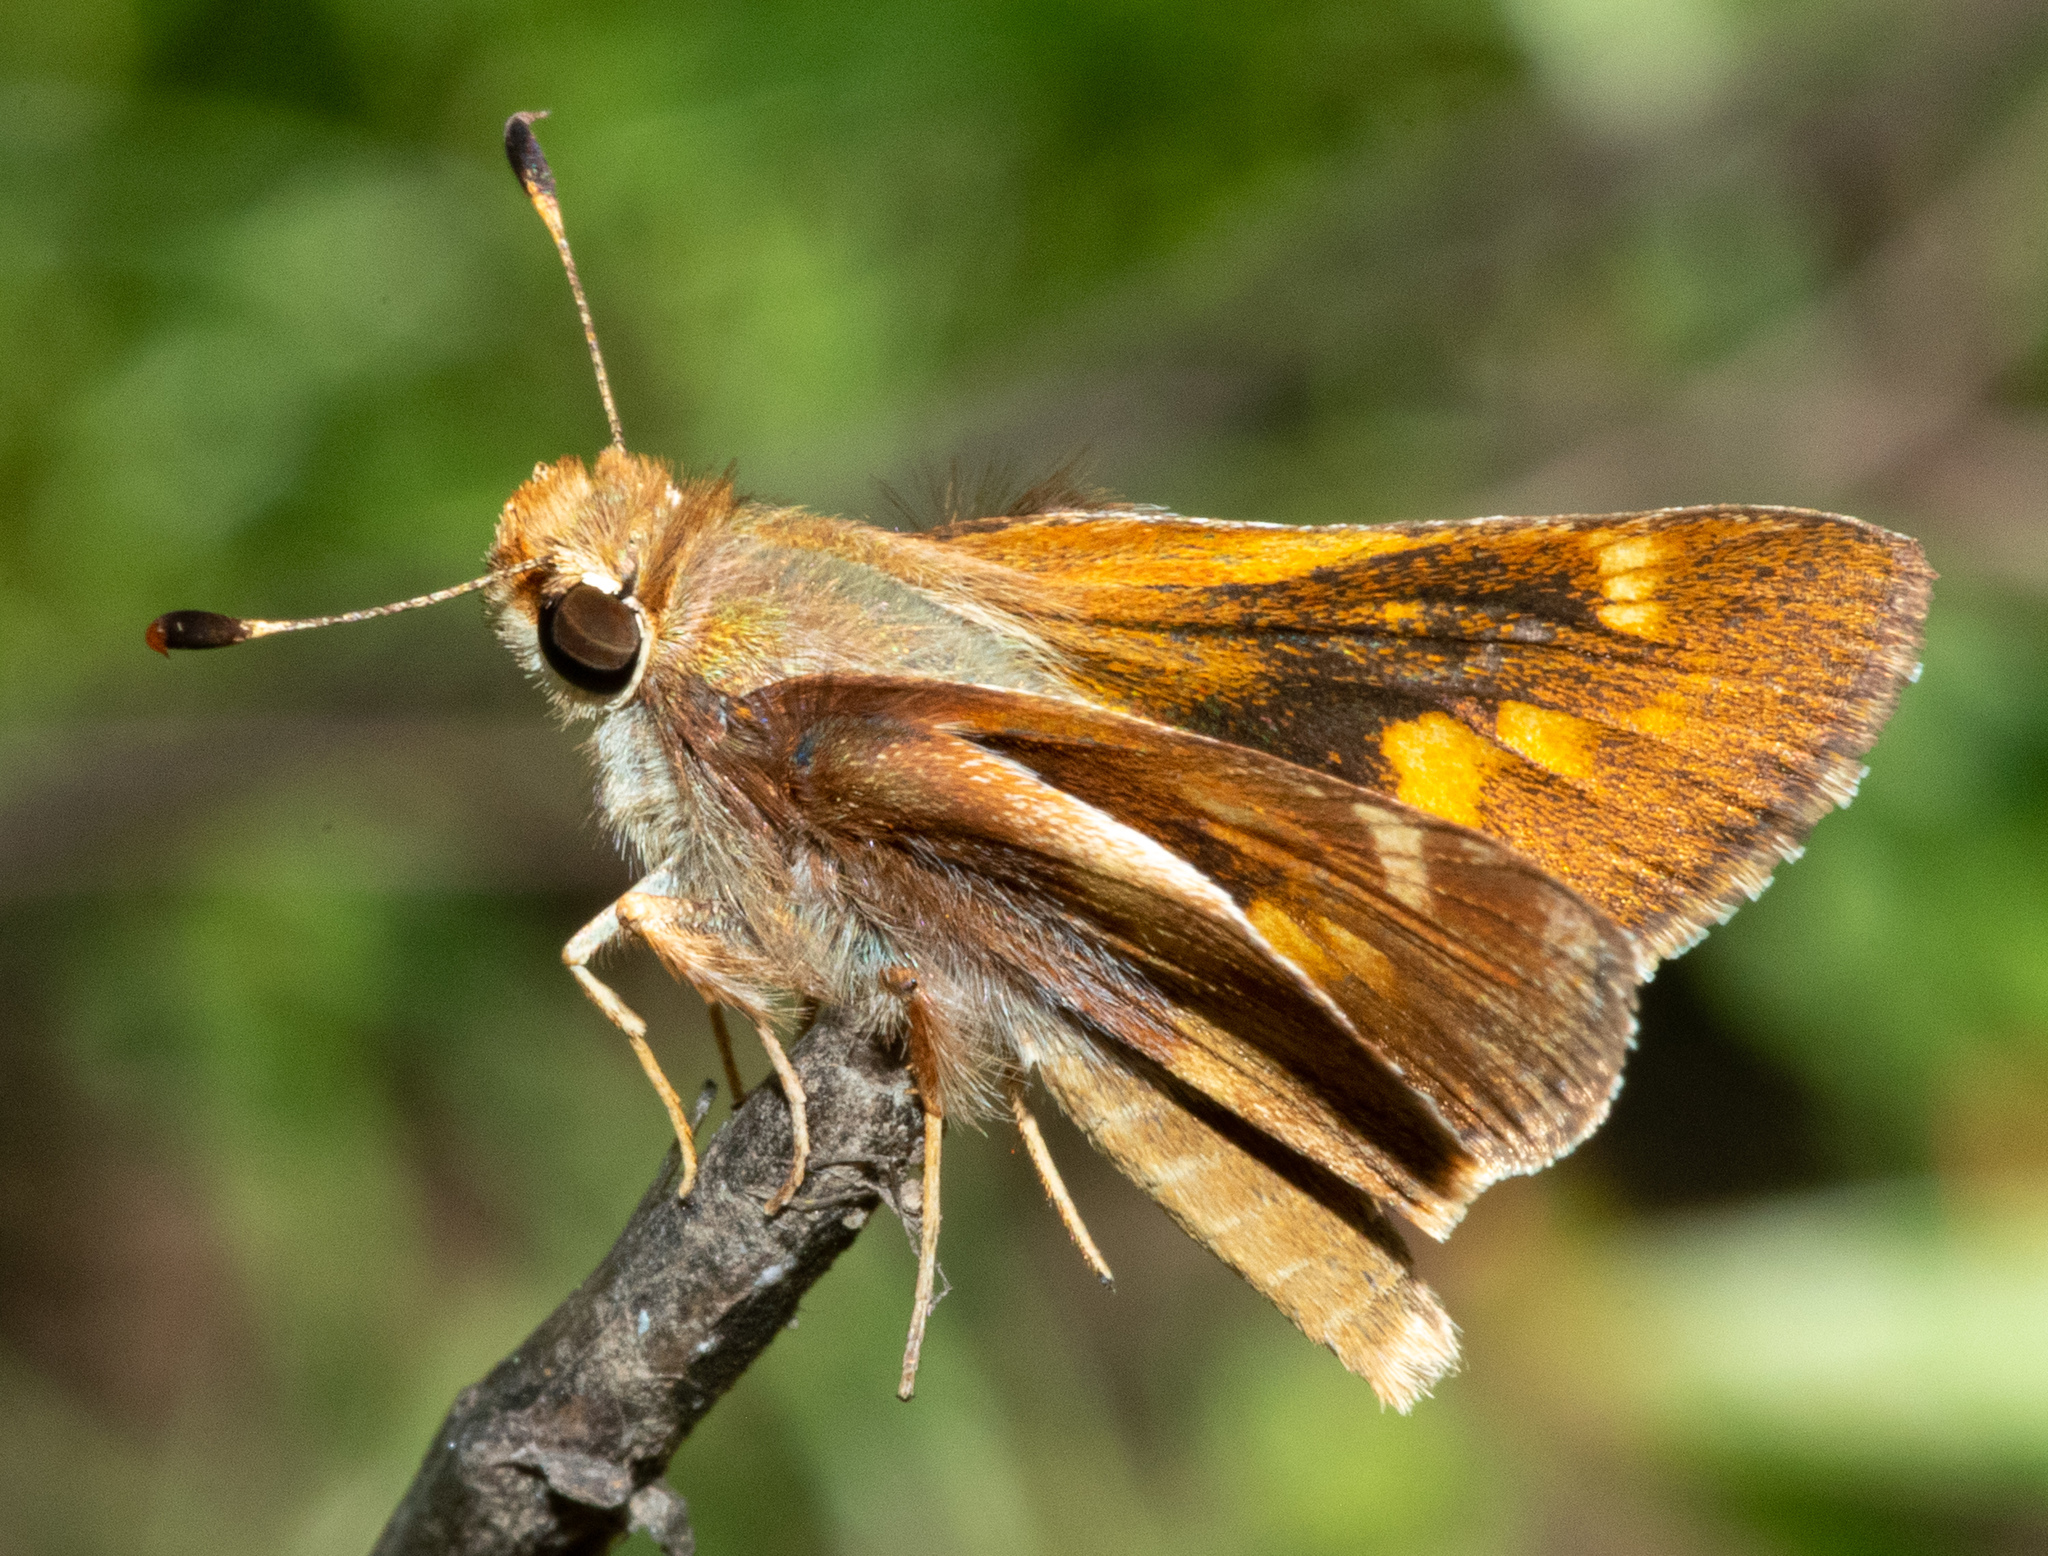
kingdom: Animalia
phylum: Arthropoda
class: Insecta
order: Lepidoptera
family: Hesperiidae
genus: Lon
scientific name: Lon melane
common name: Umber skipper
